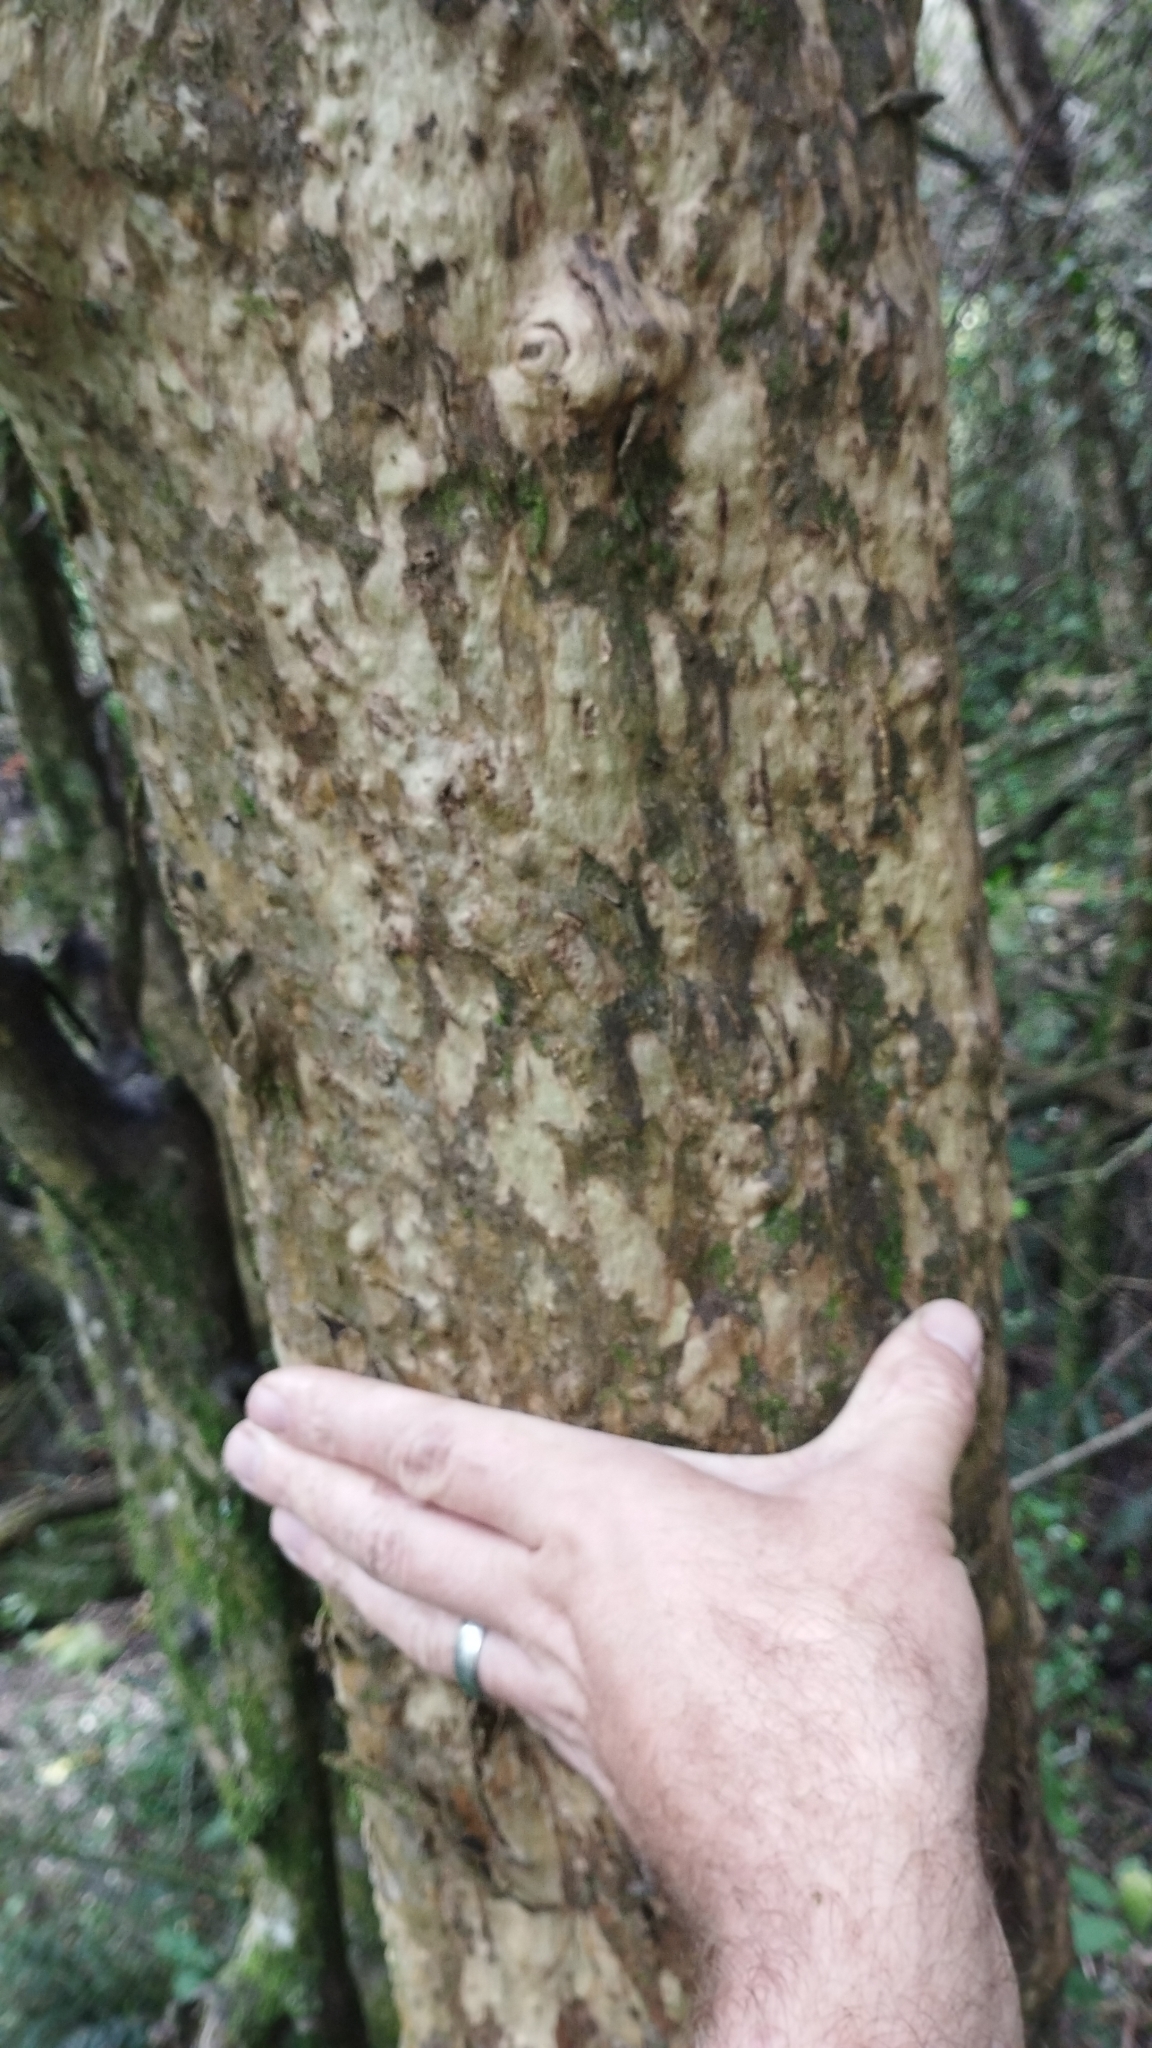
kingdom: Plantae
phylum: Tracheophyta
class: Magnoliopsida
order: Gentianales
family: Rubiaceae
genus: Coprosma
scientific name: Coprosma virescens
